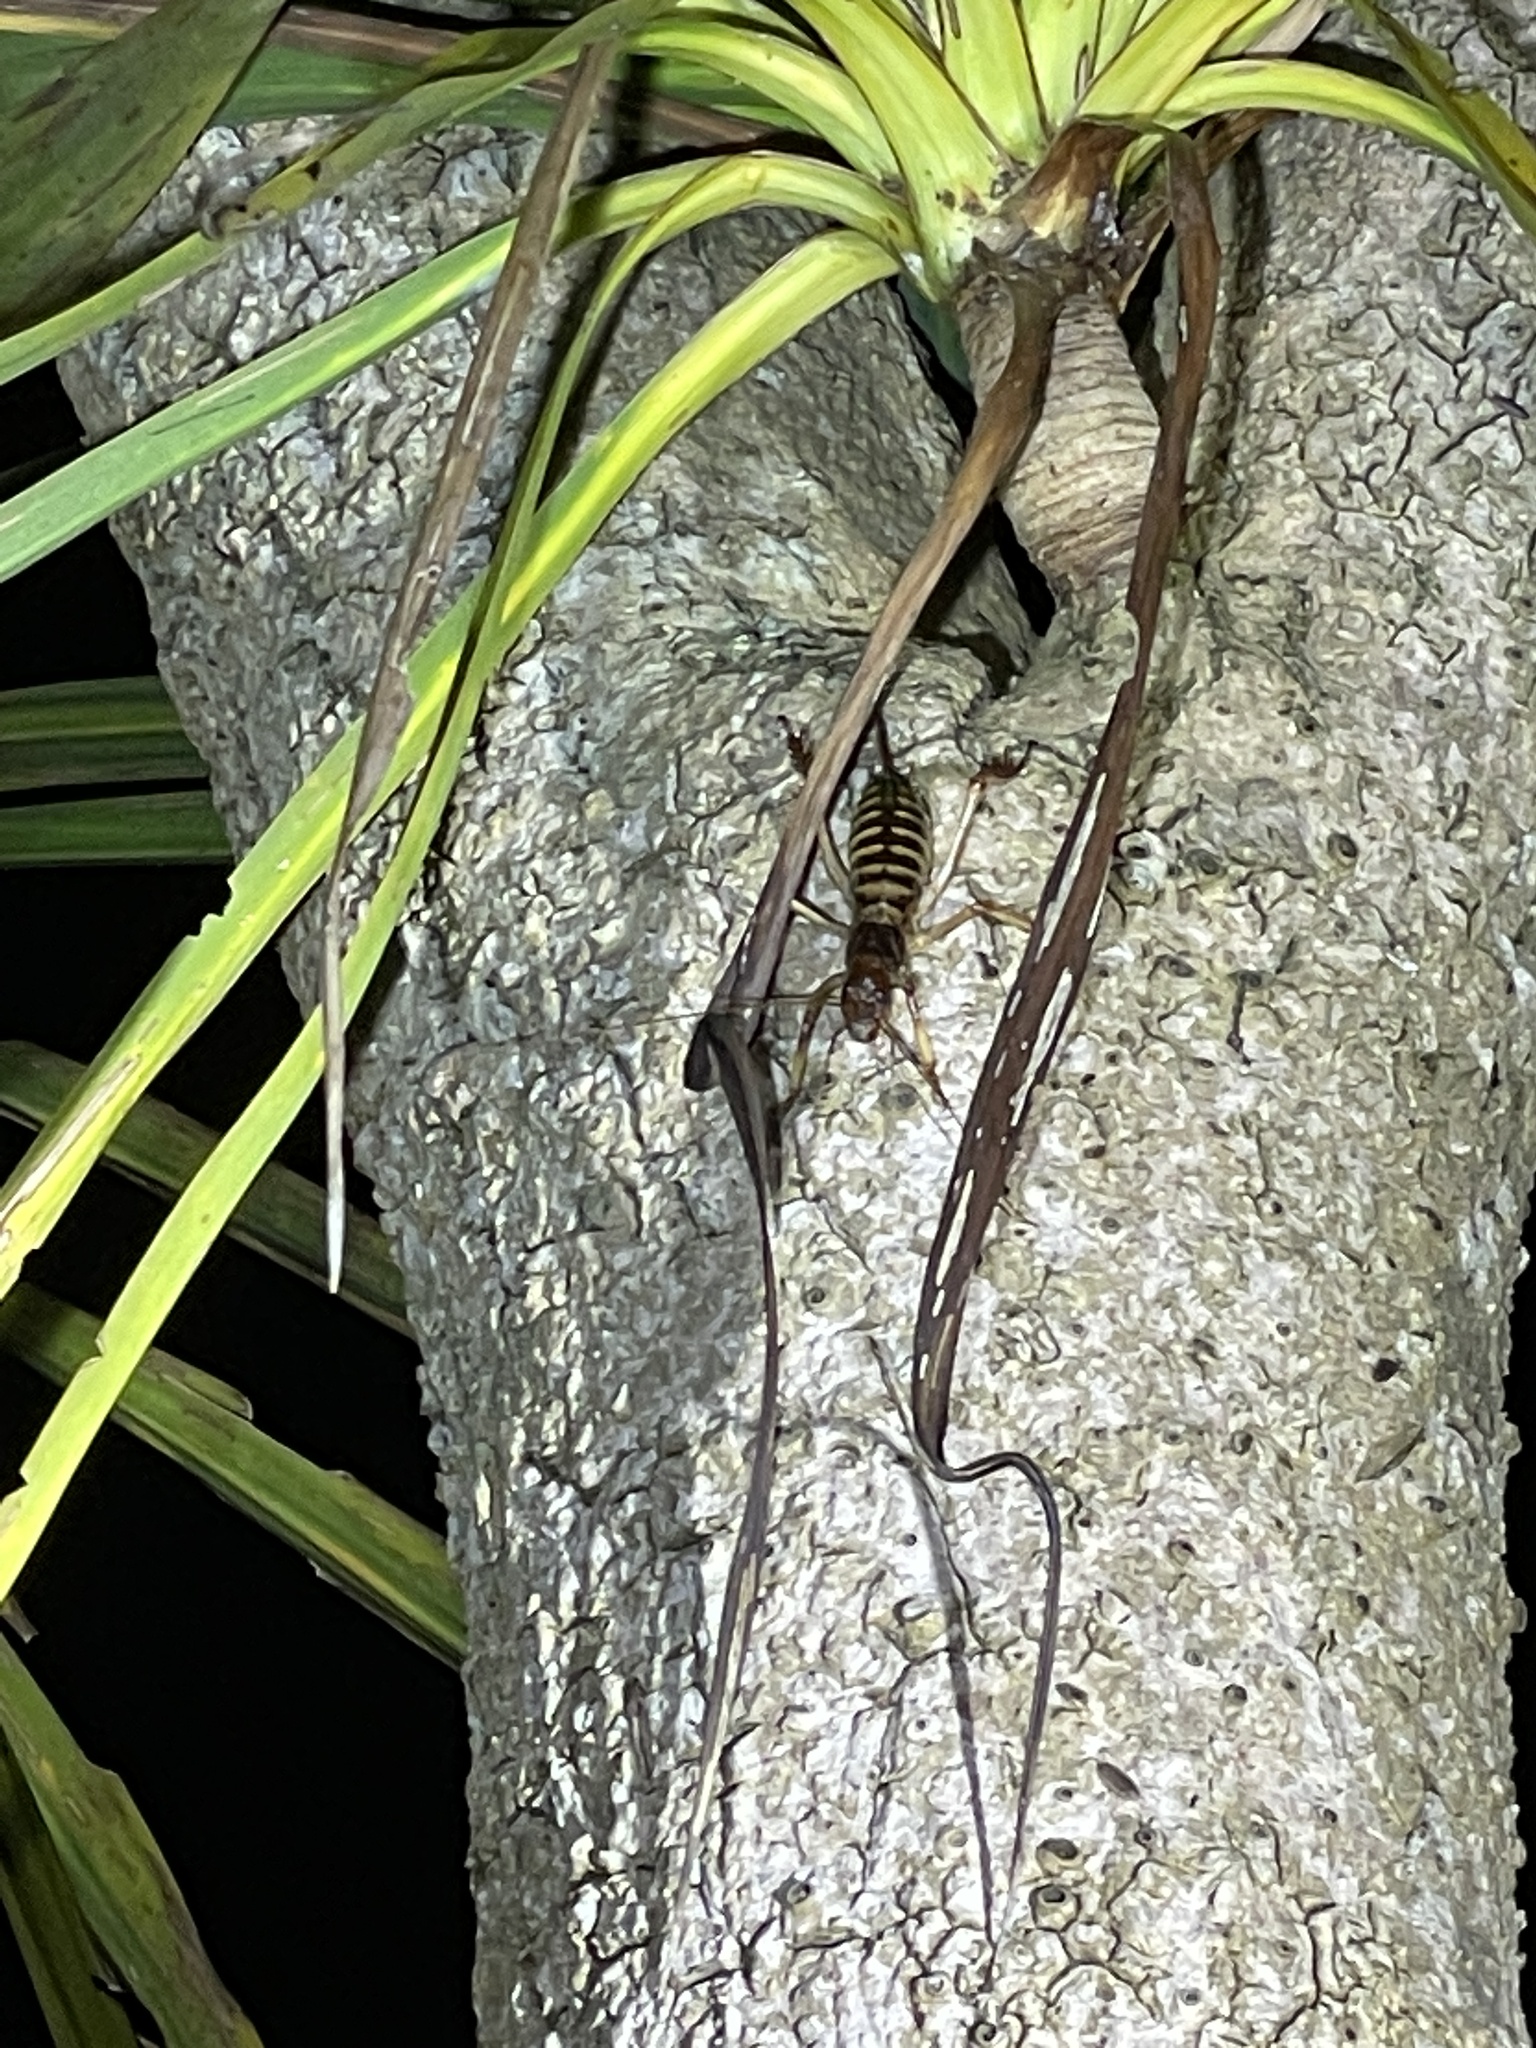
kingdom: Animalia
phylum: Arthropoda
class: Insecta
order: Orthoptera
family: Anostostomatidae
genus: Hemideina
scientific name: Hemideina crassidens
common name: Wellington tree weta
